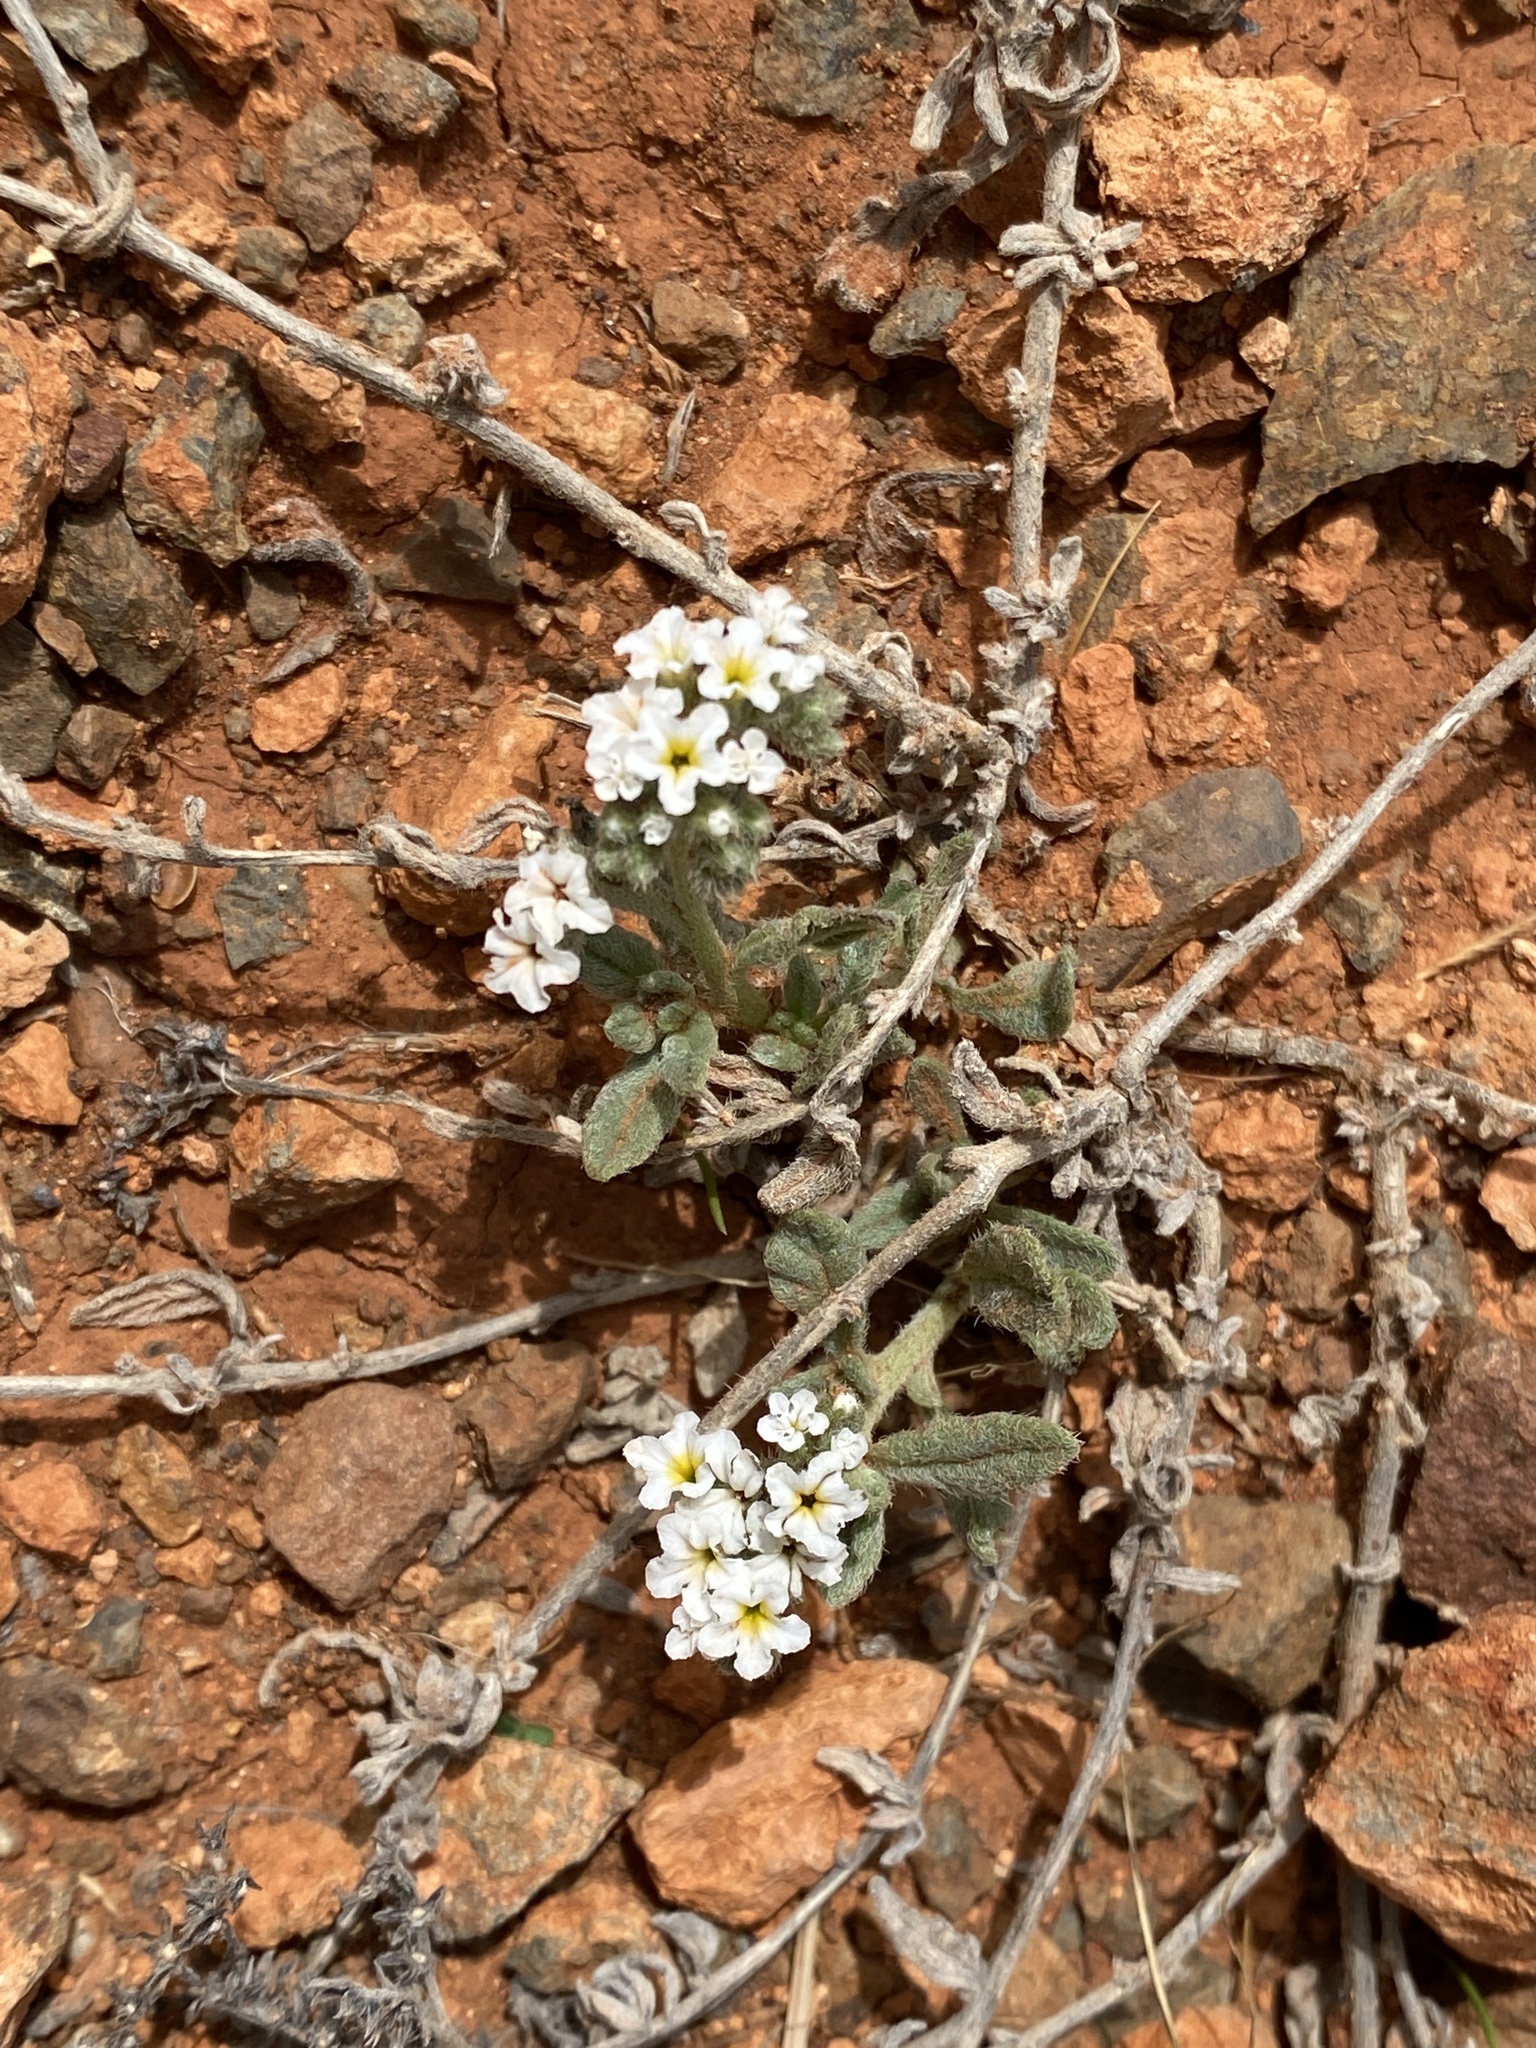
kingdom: Plantae
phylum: Tracheophyta
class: Magnoliopsida
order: Boraginales
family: Heliotropiaceae
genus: Heliotropium
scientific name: Heliotropium ramosissimum
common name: Wavy heliotrope
